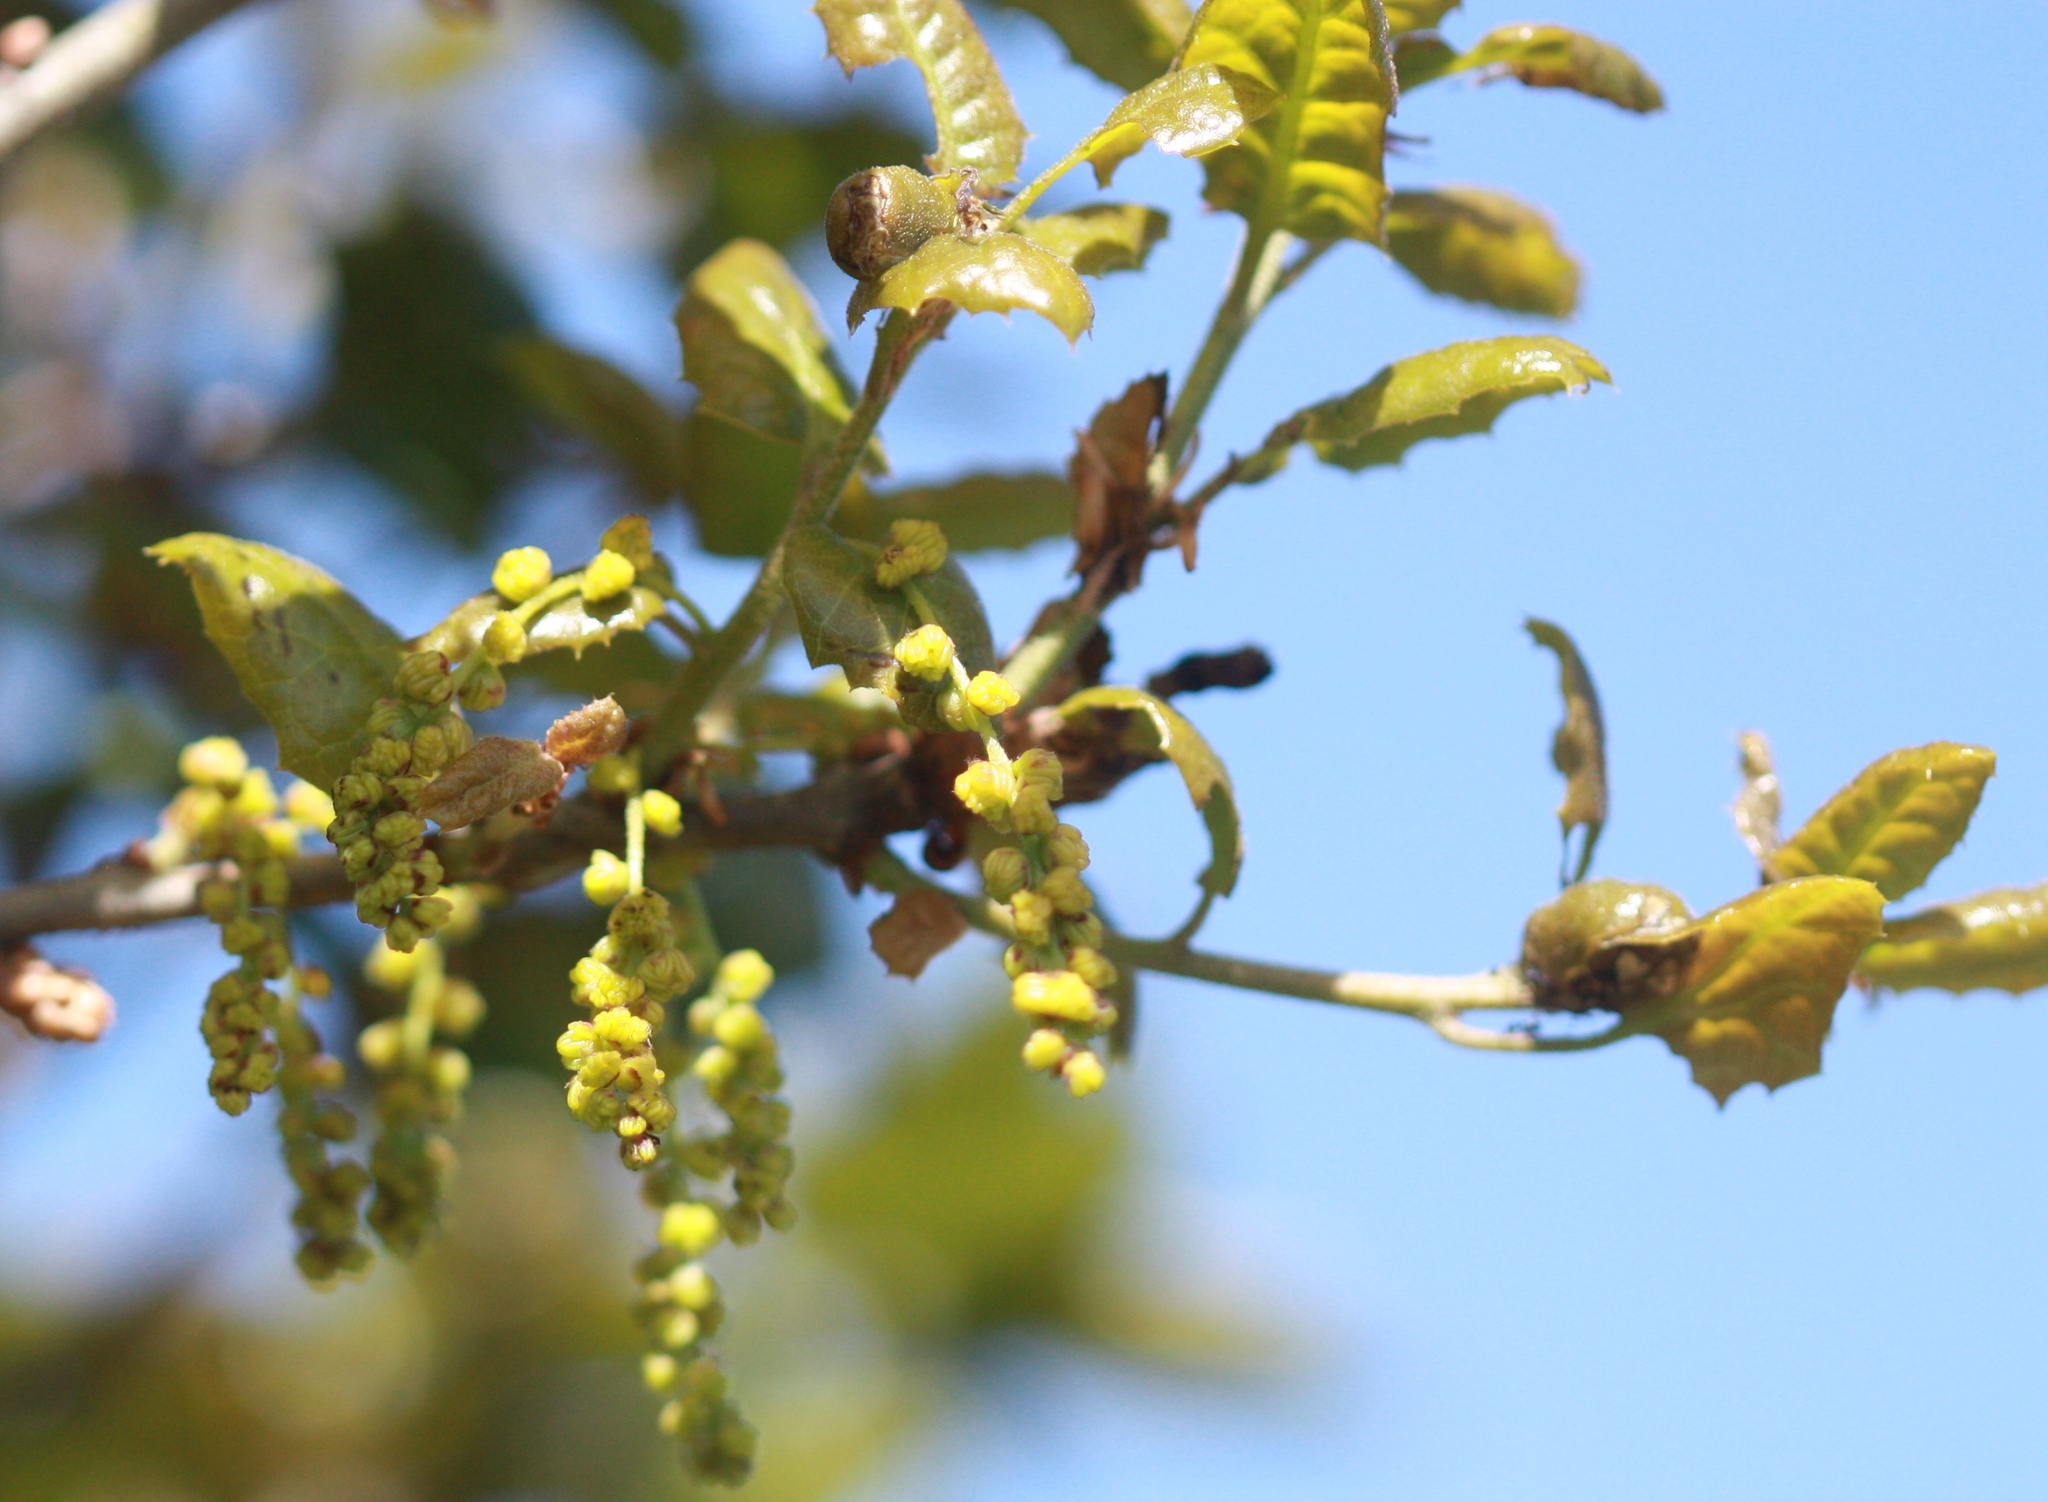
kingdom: Plantae
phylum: Tracheophyta
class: Magnoliopsida
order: Fagales
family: Fagaceae
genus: Quercus
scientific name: Quercus agrifolia
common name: California live oak
